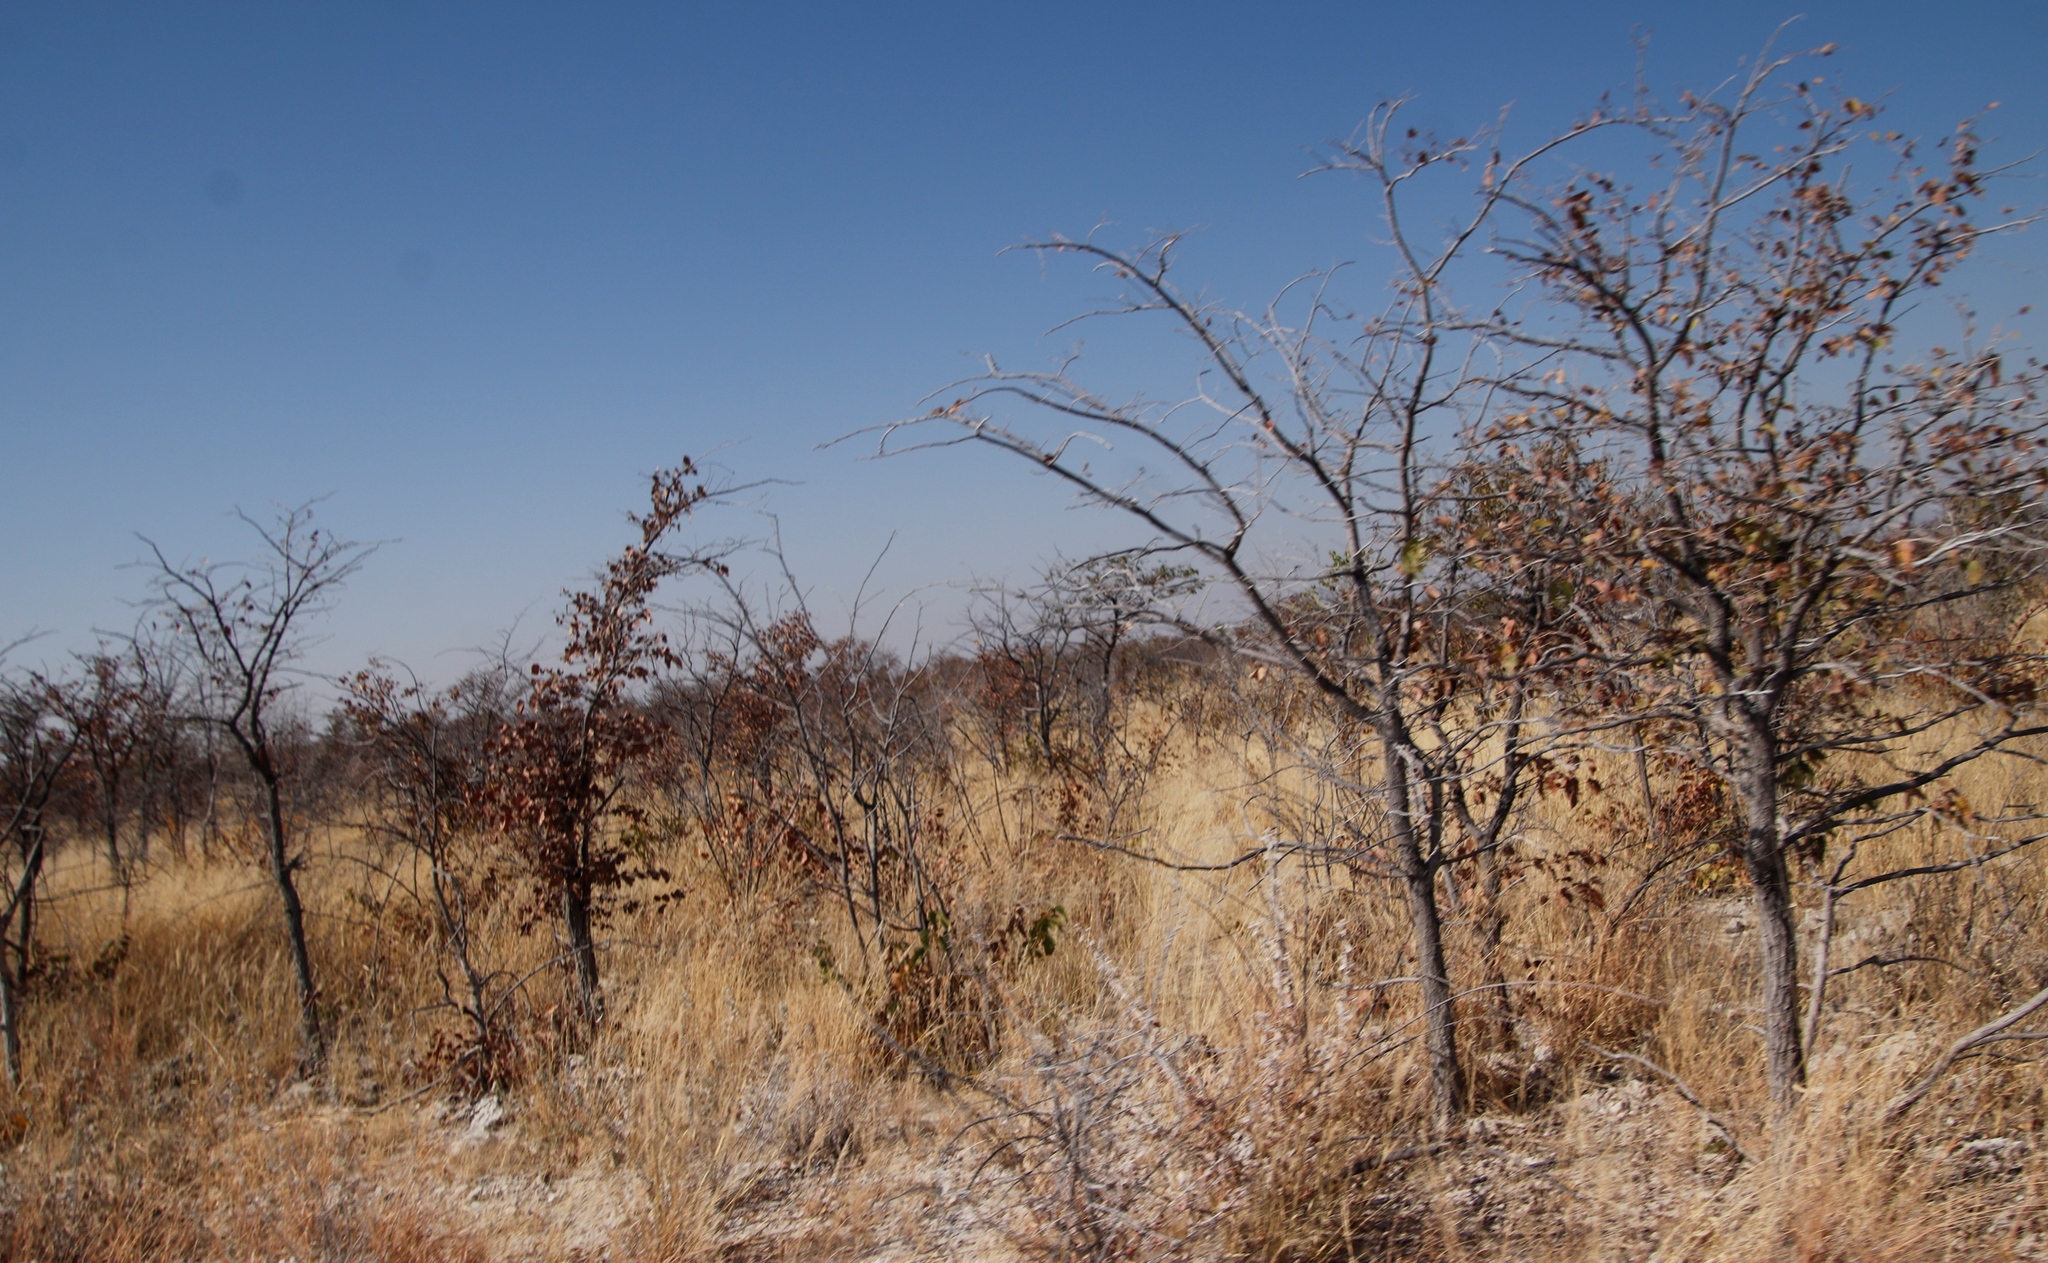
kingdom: Plantae
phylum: Tracheophyta
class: Magnoliopsida
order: Fabales
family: Fabaceae
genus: Colophospermum
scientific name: Colophospermum mopane
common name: Mopane
